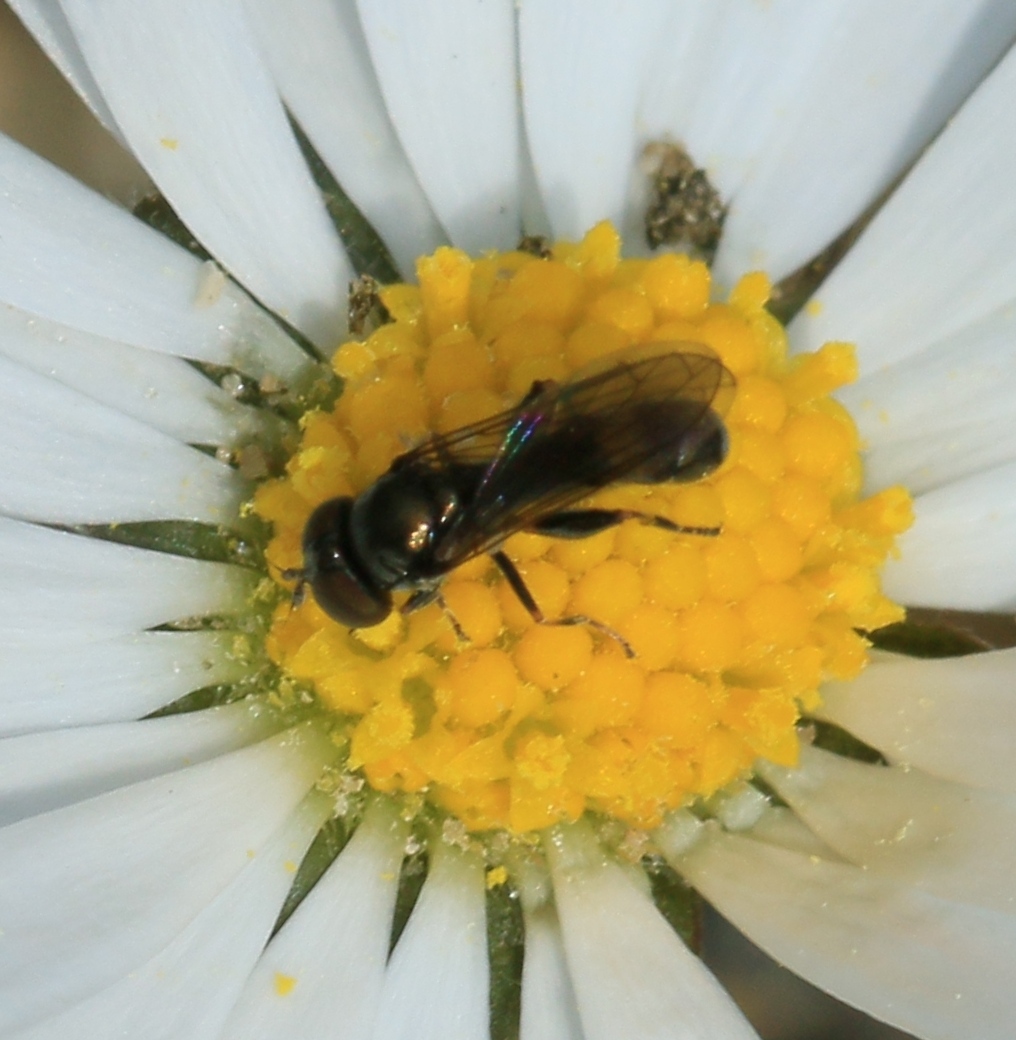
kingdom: Animalia
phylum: Arthropoda
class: Insecta
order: Diptera
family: Syrphidae
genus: Neoascia
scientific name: Neoascia
